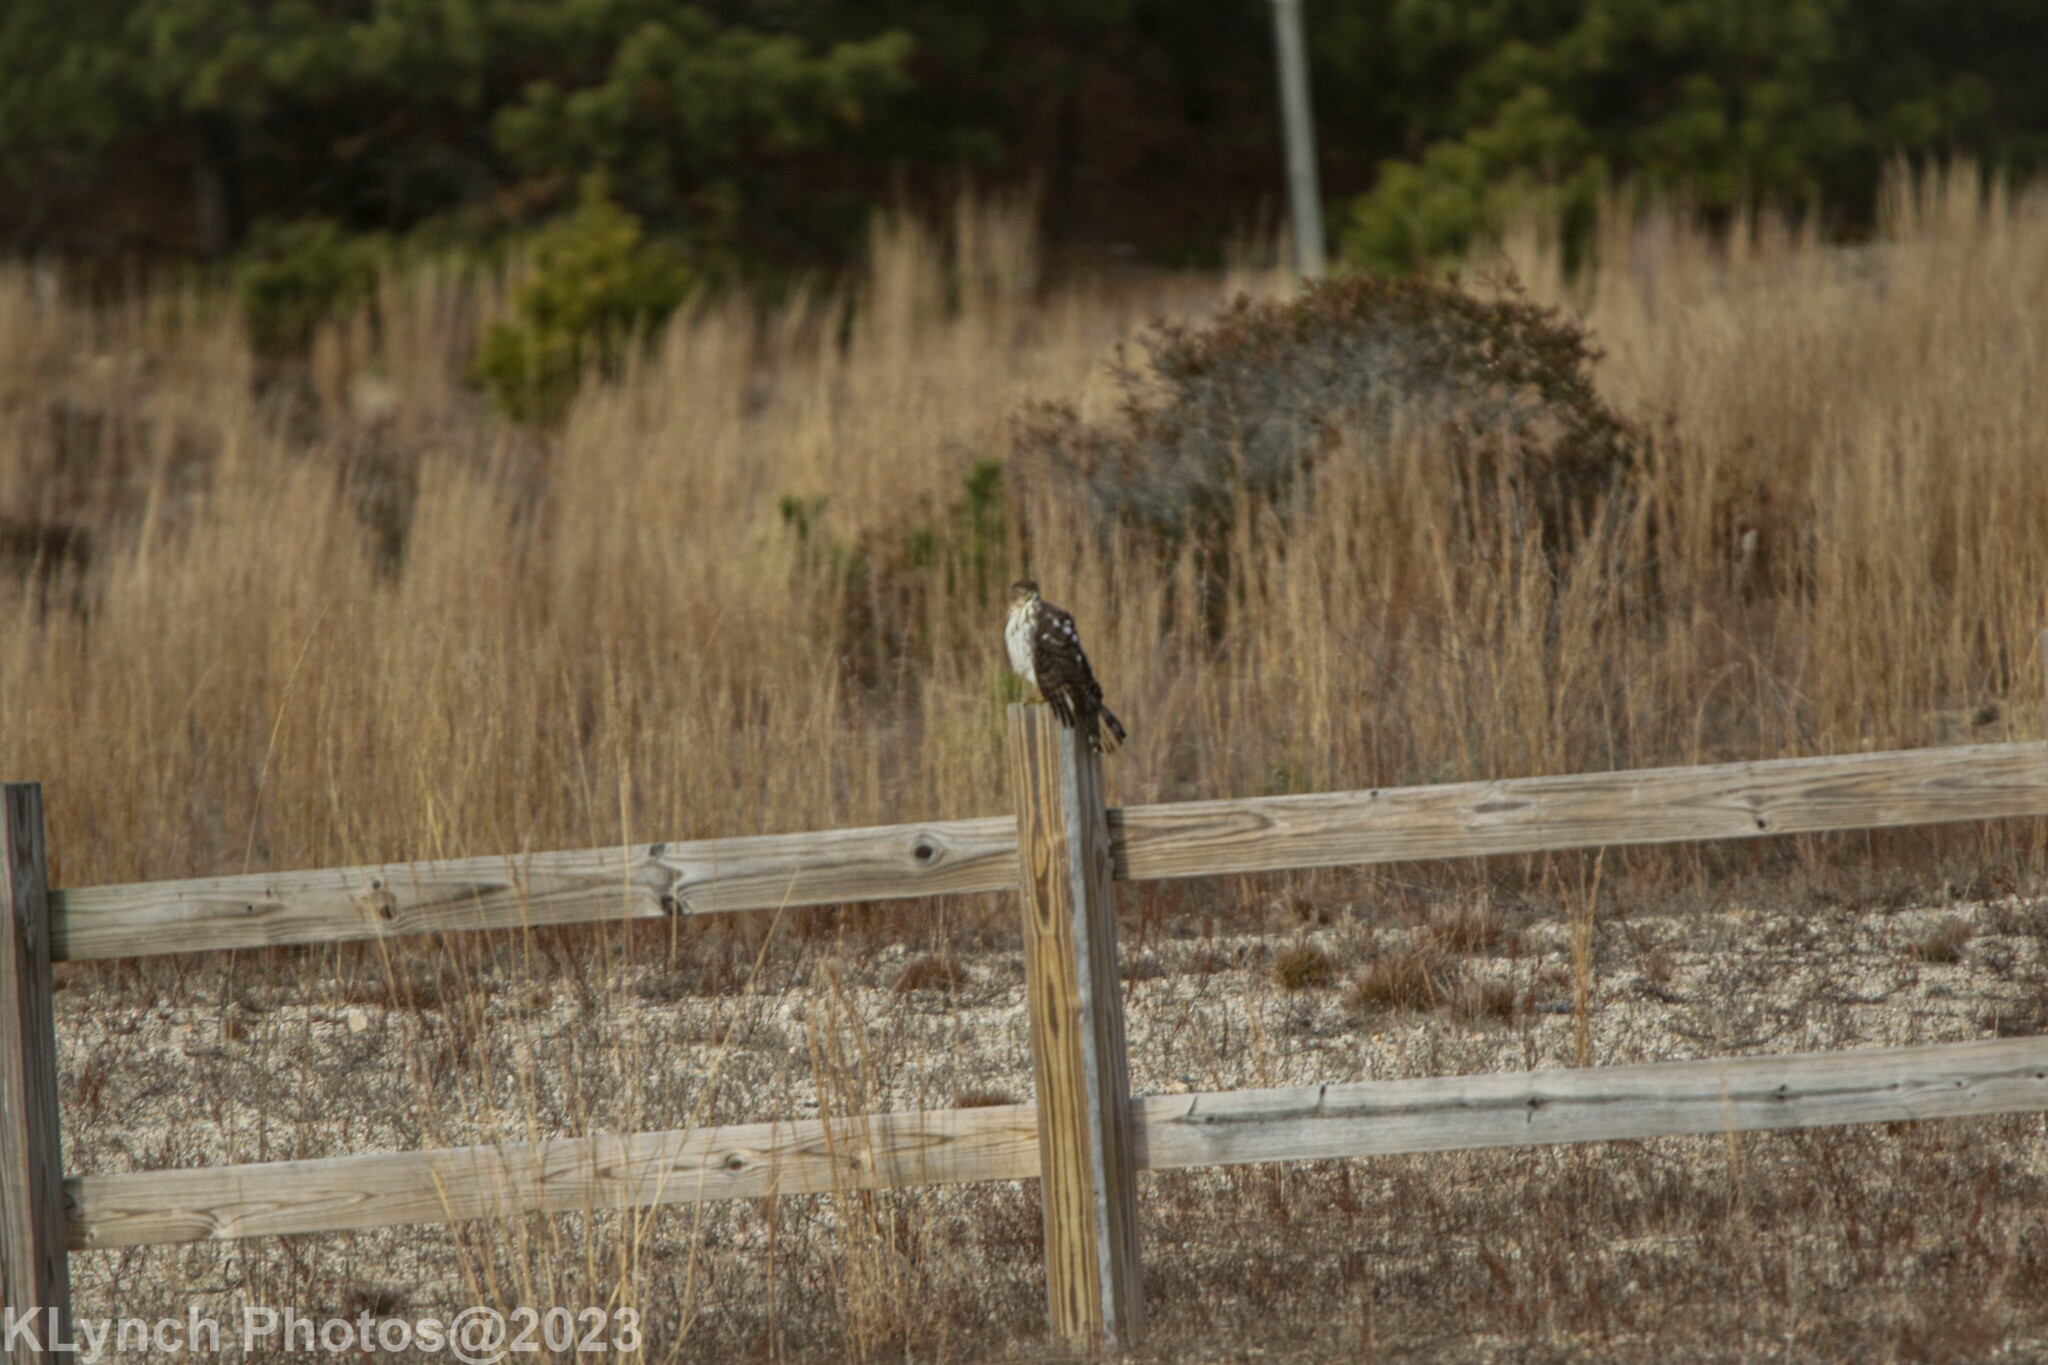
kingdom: Animalia
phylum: Chordata
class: Aves
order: Accipitriformes
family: Accipitridae
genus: Accipiter
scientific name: Accipiter cooperii
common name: Cooper's hawk
